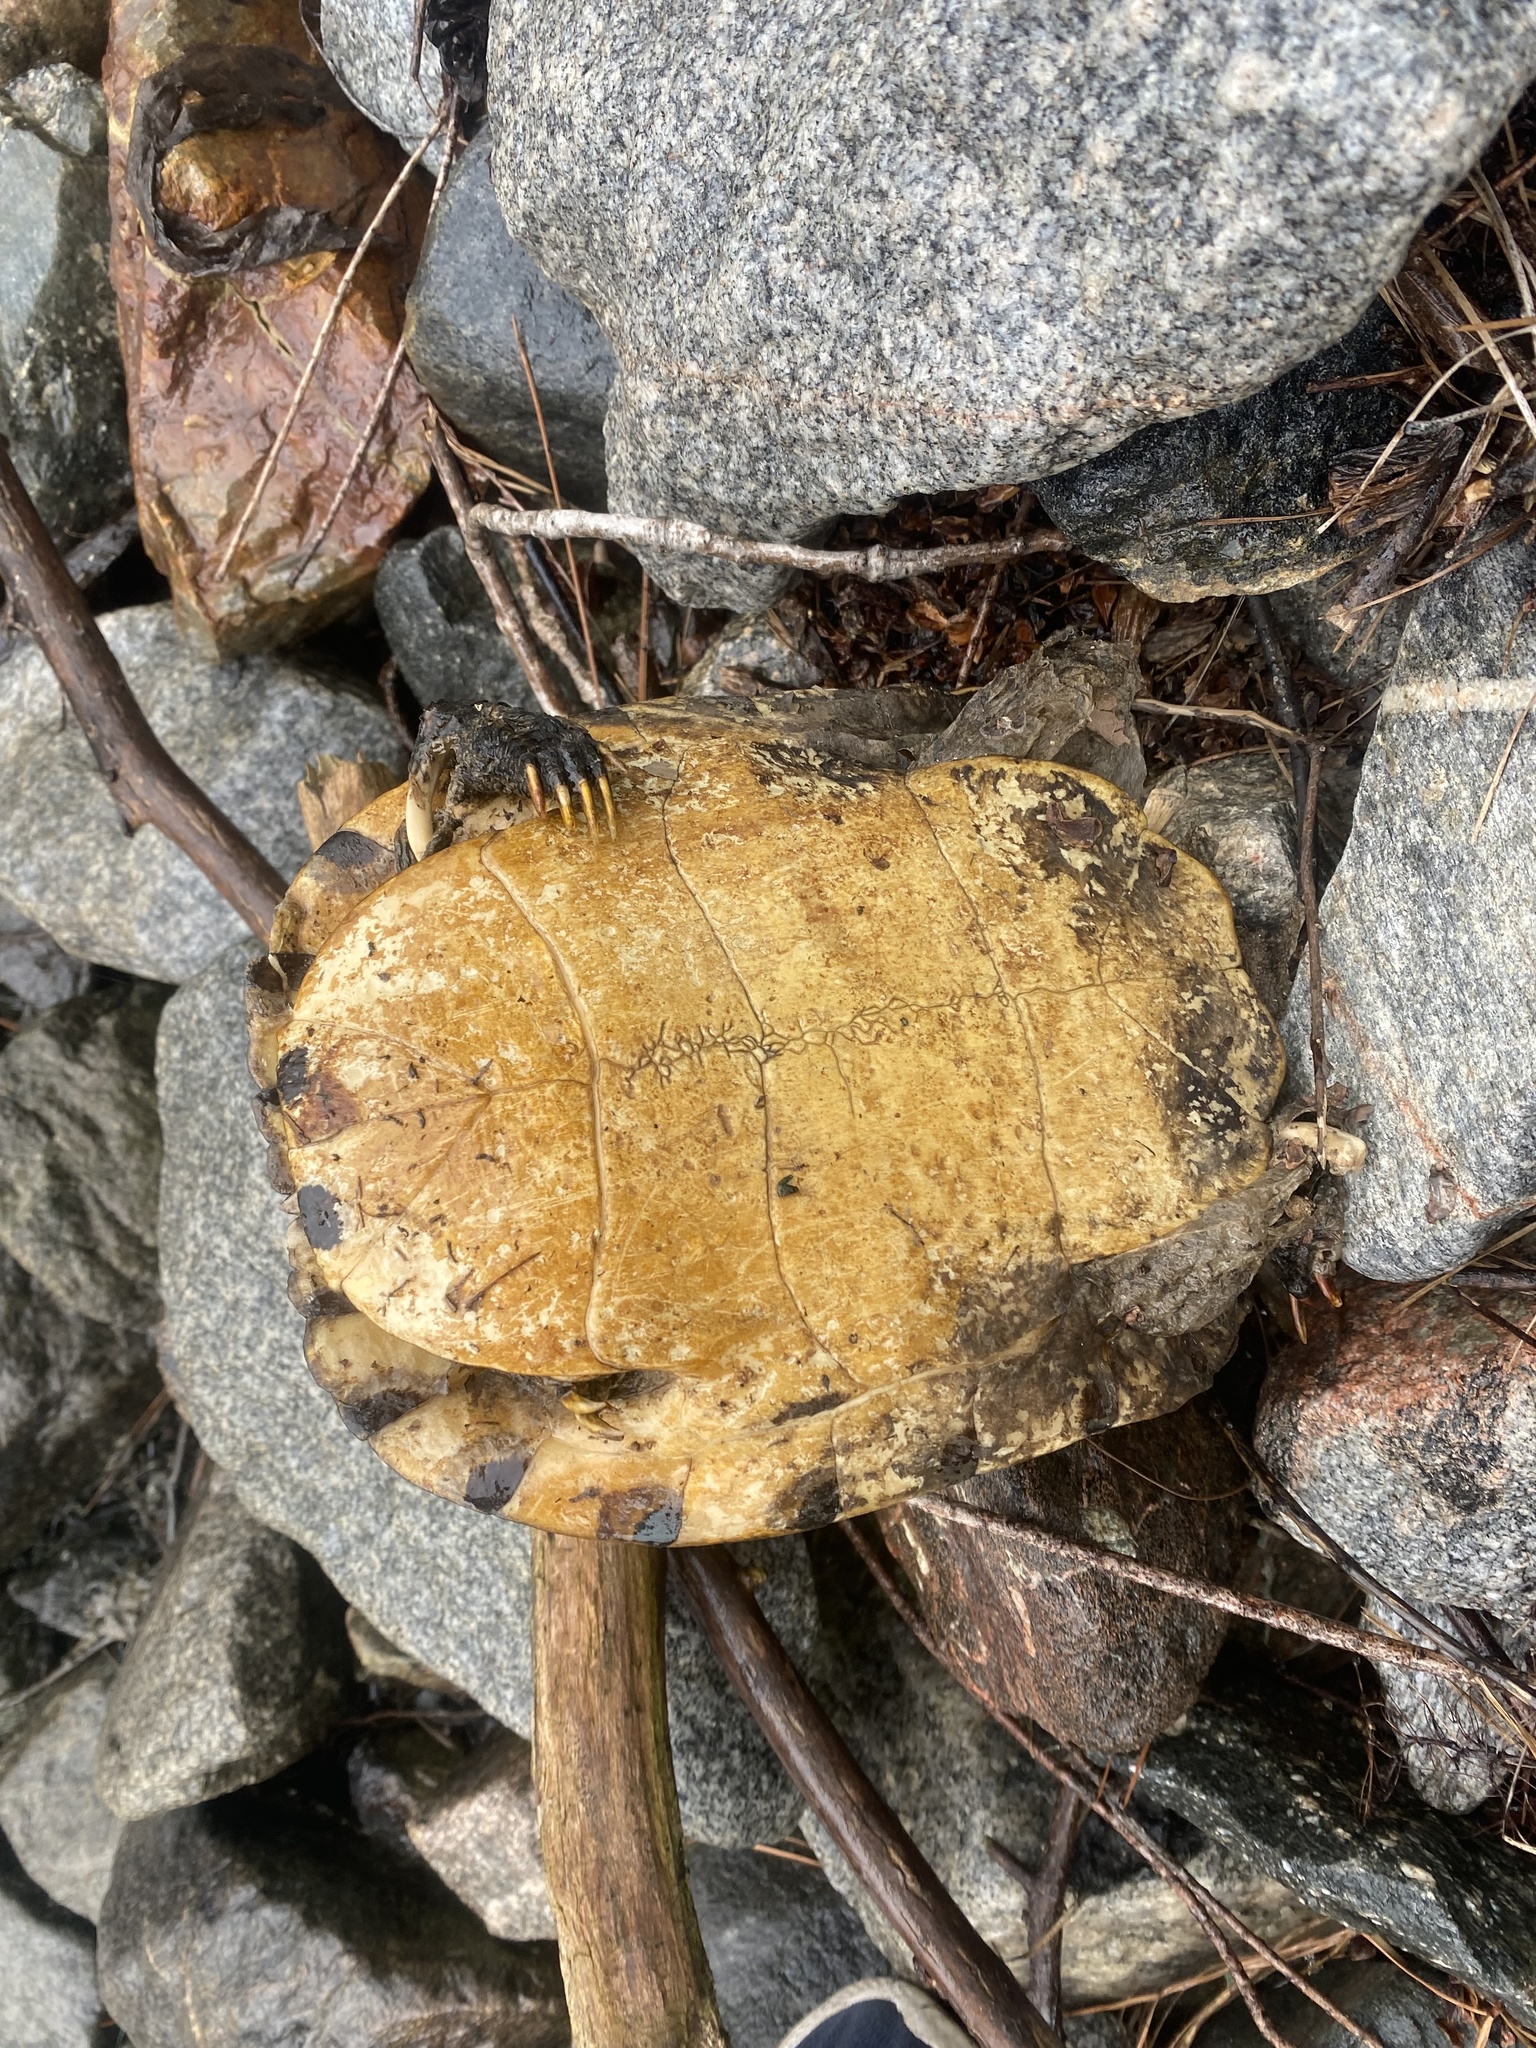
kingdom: Animalia
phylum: Chordata
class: Testudines
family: Emydidae
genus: Trachemys
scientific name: Trachemys scripta
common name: Slider
